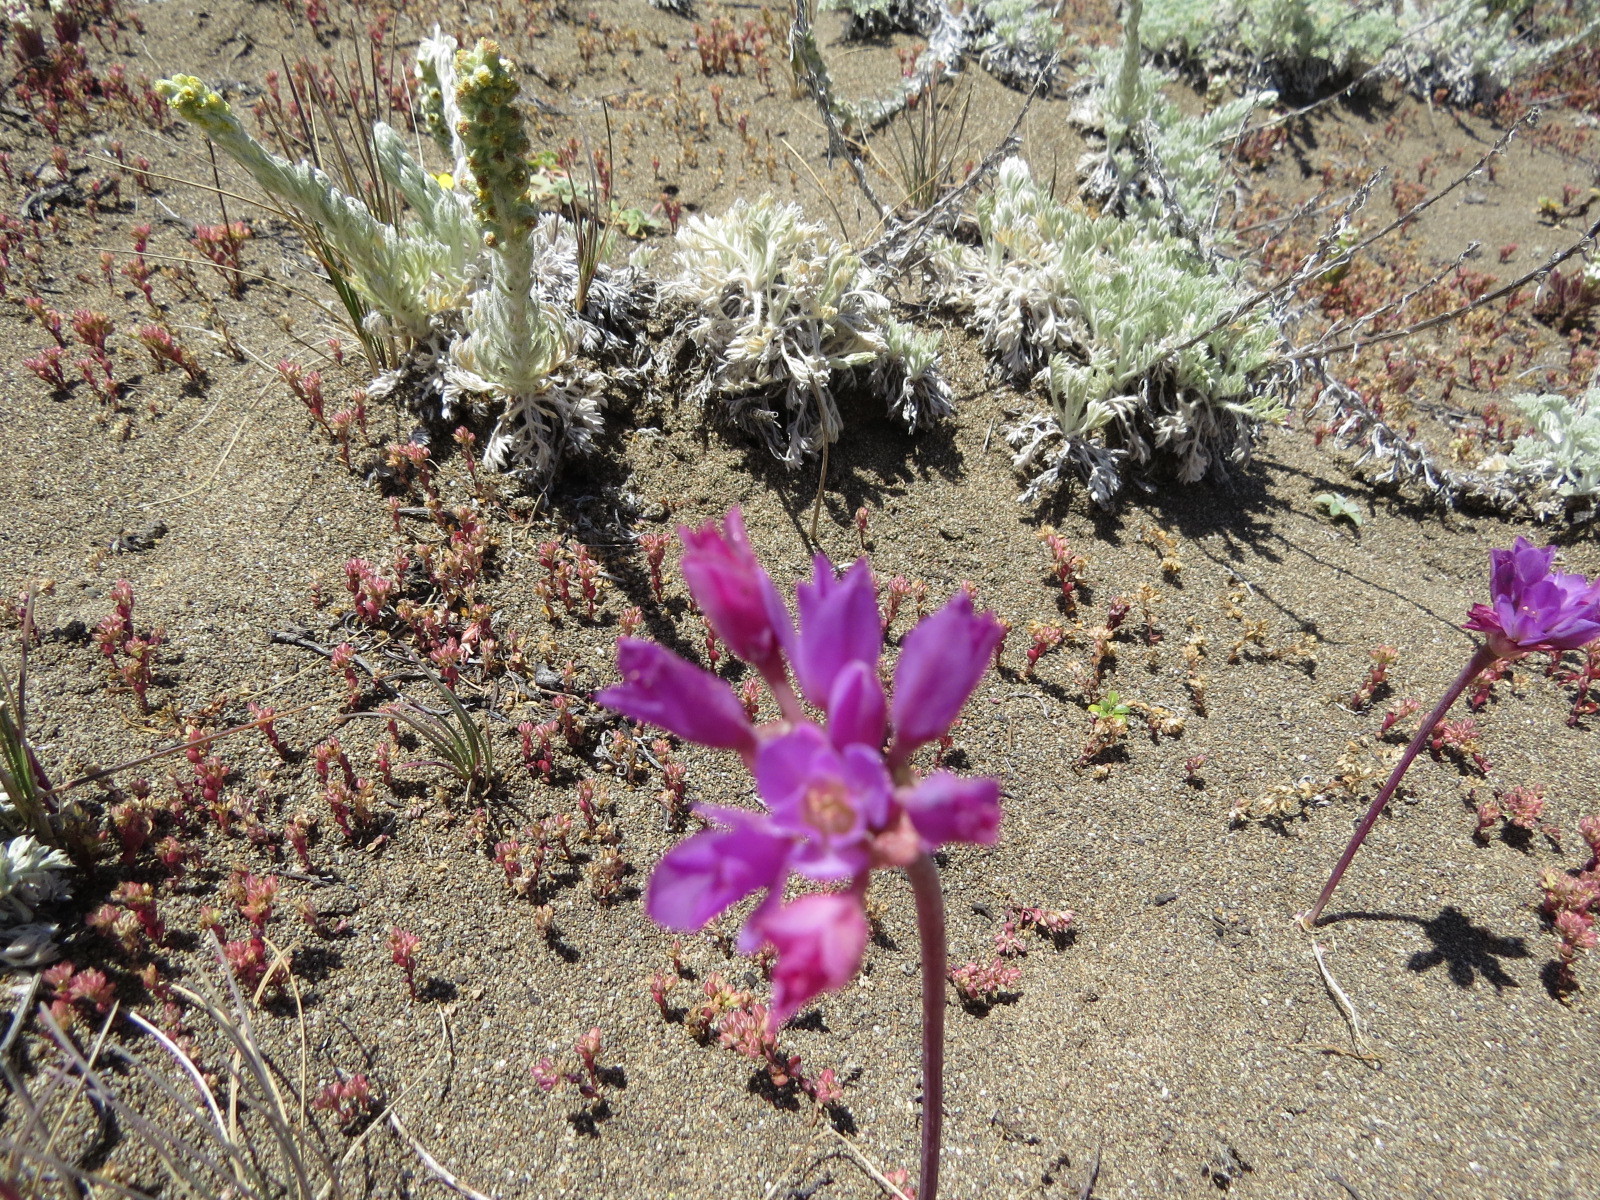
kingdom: Plantae
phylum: Tracheophyta
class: Liliopsida
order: Asparagales
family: Amaryllidaceae
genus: Allium
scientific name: Allium dichlamydeum
